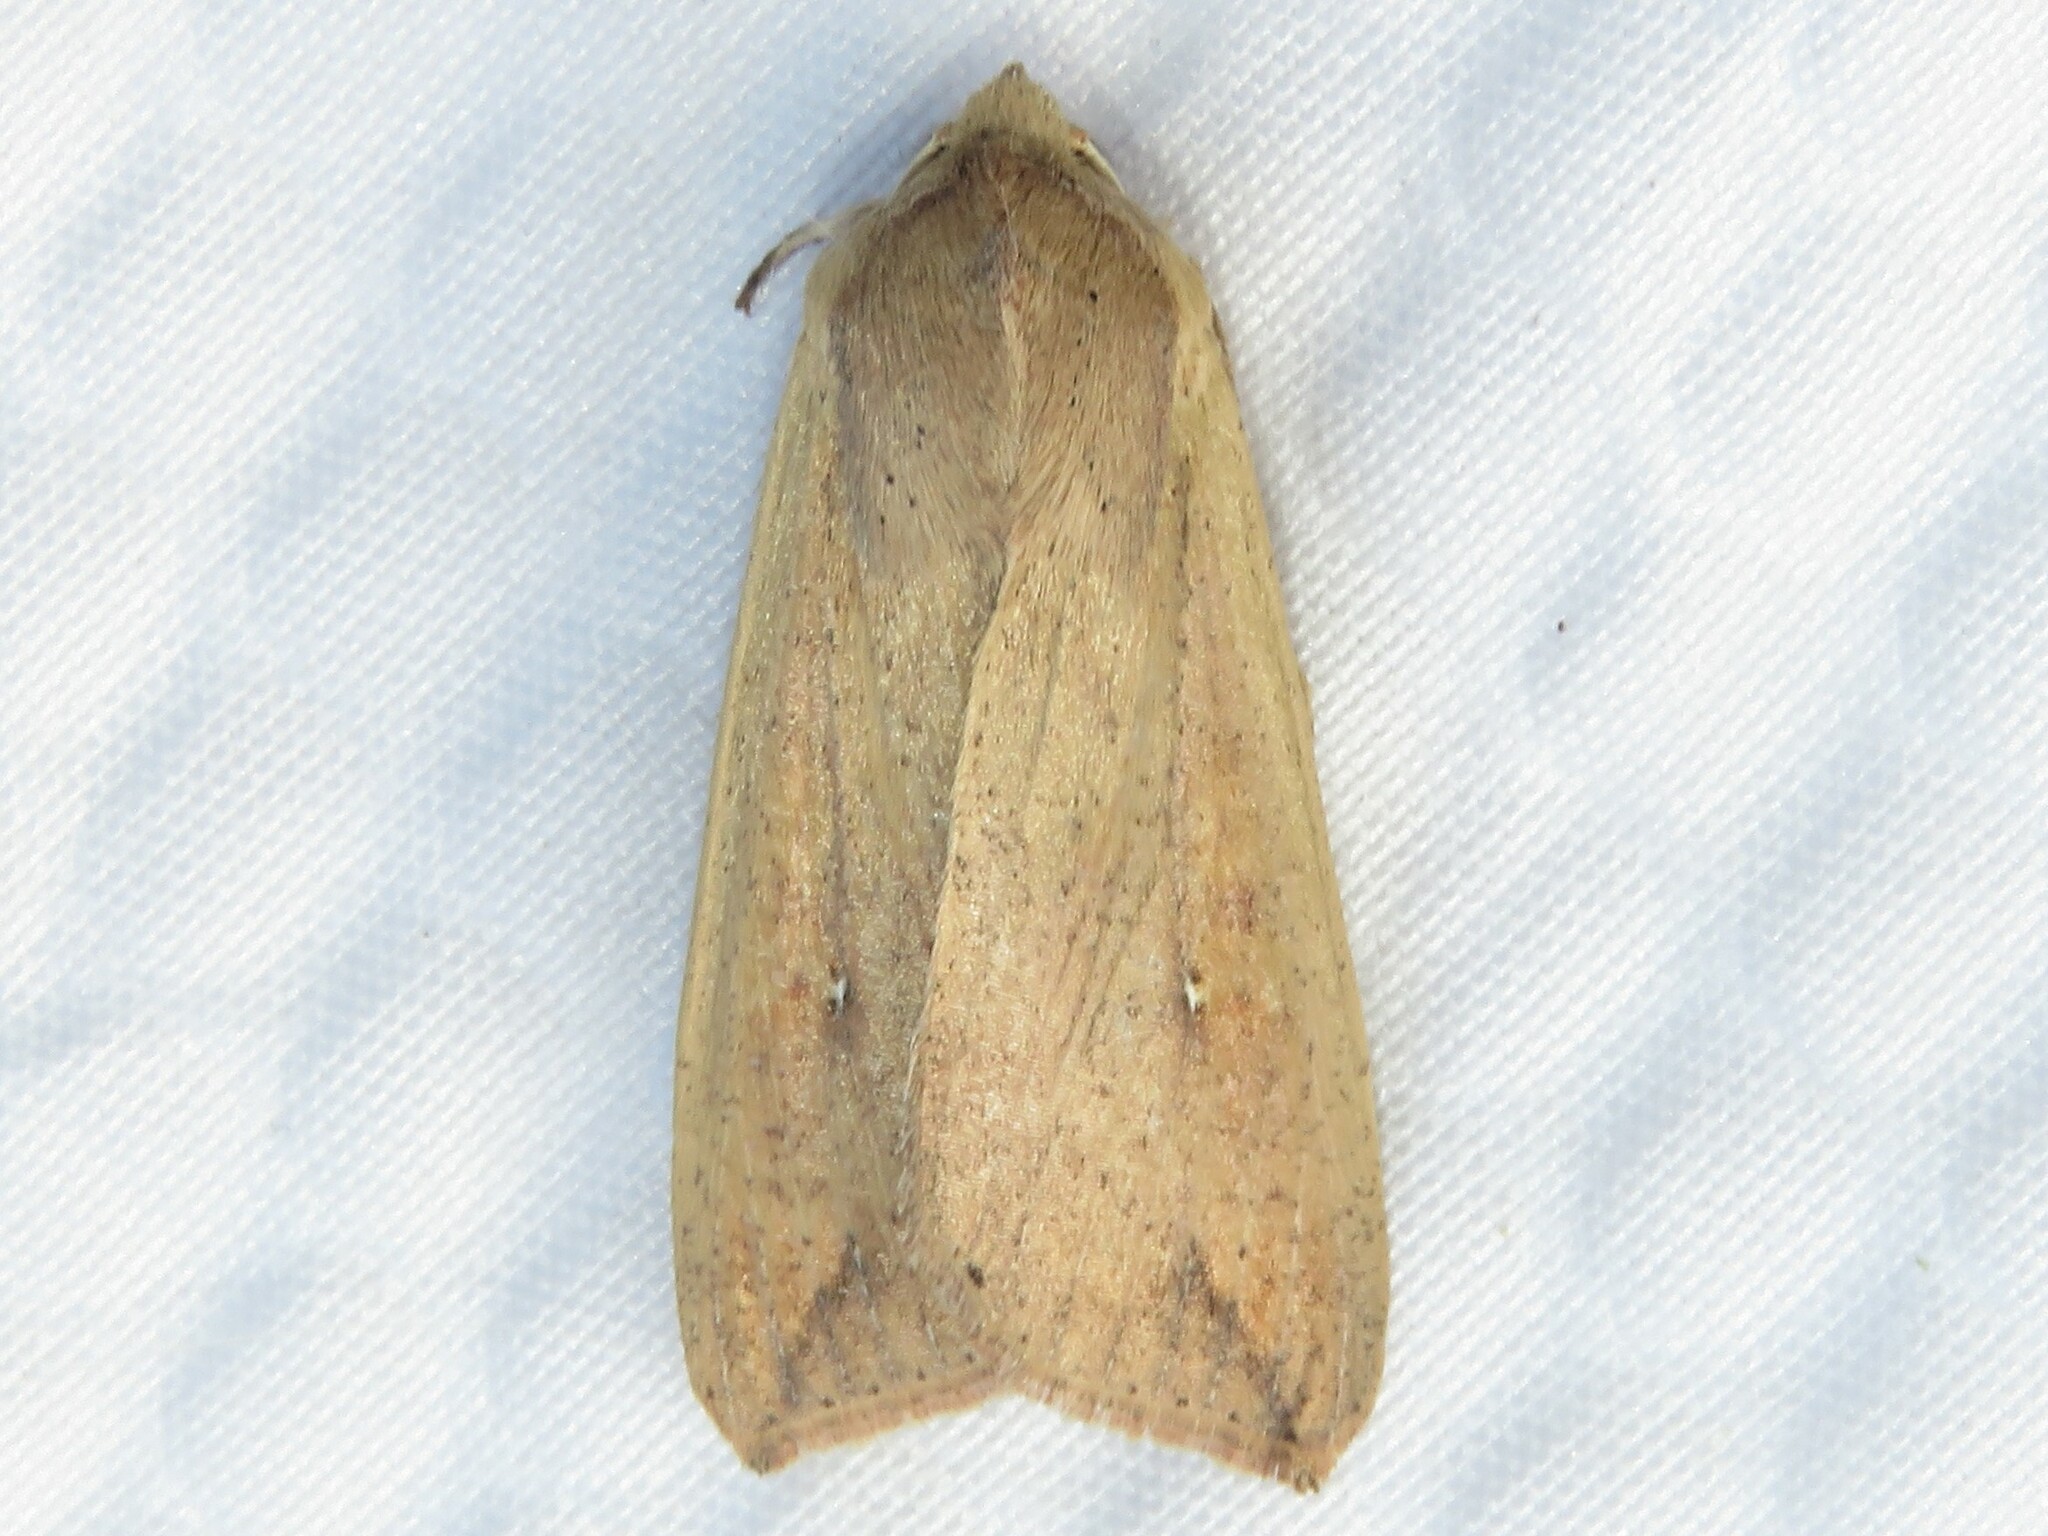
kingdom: Animalia
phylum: Arthropoda
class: Insecta
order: Lepidoptera
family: Noctuidae
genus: Mythimna
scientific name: Mythimna unipuncta
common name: White-speck
